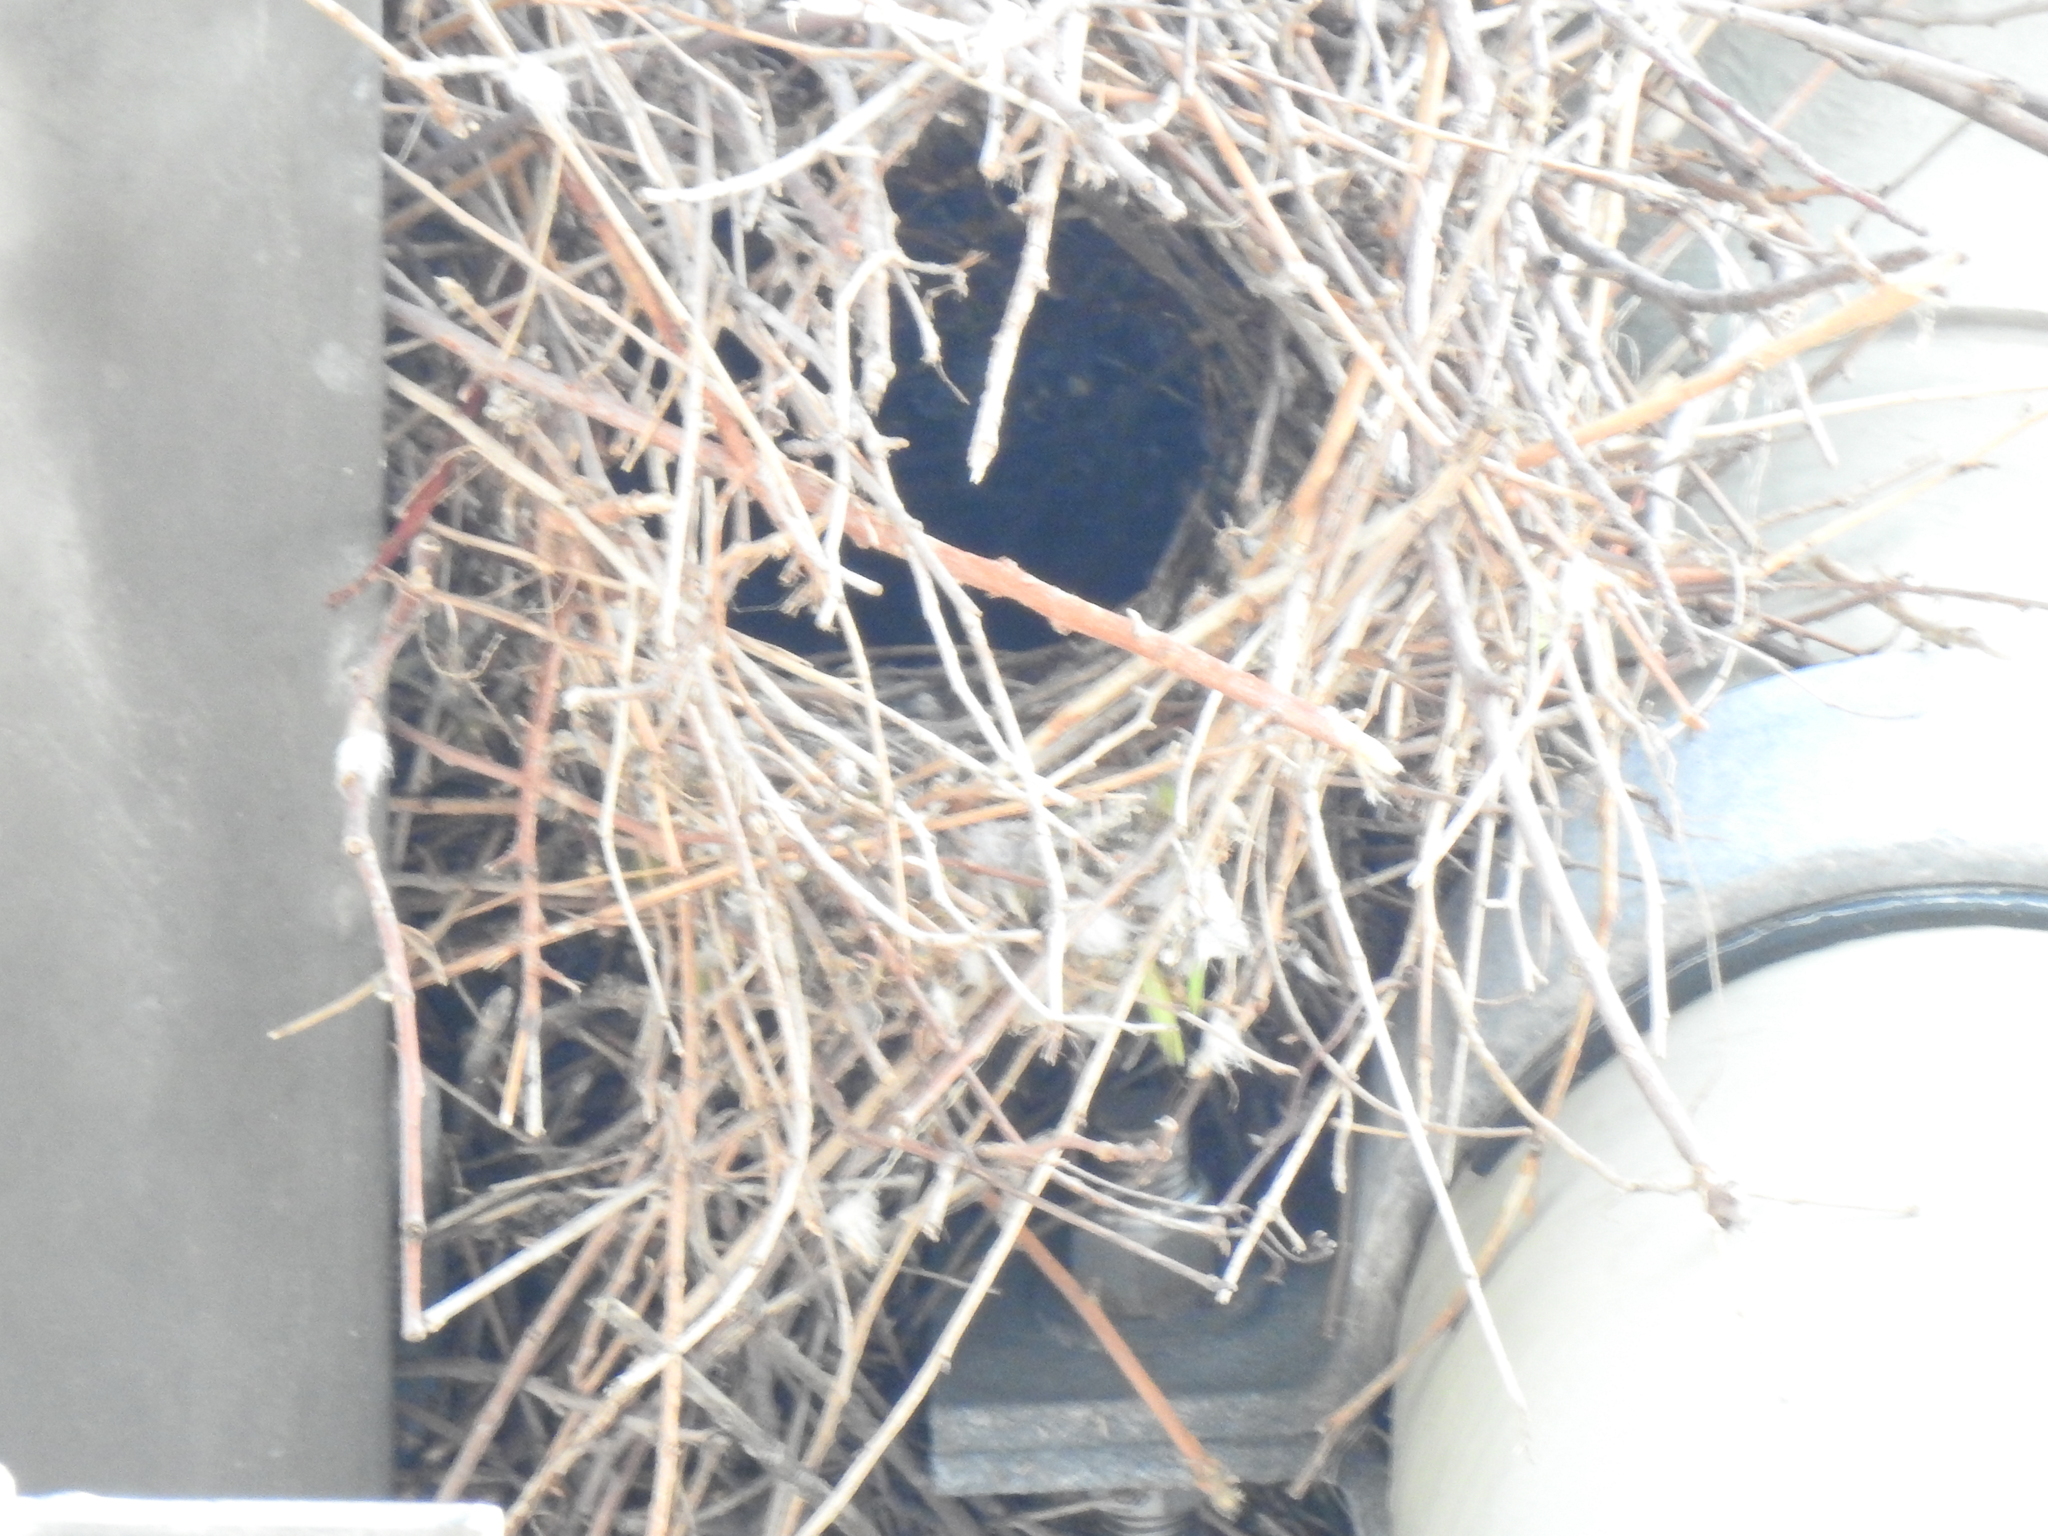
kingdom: Animalia
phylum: Chordata
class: Aves
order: Psittaciformes
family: Psittacidae
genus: Myiopsitta
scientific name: Myiopsitta monachus
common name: Monk parakeet
